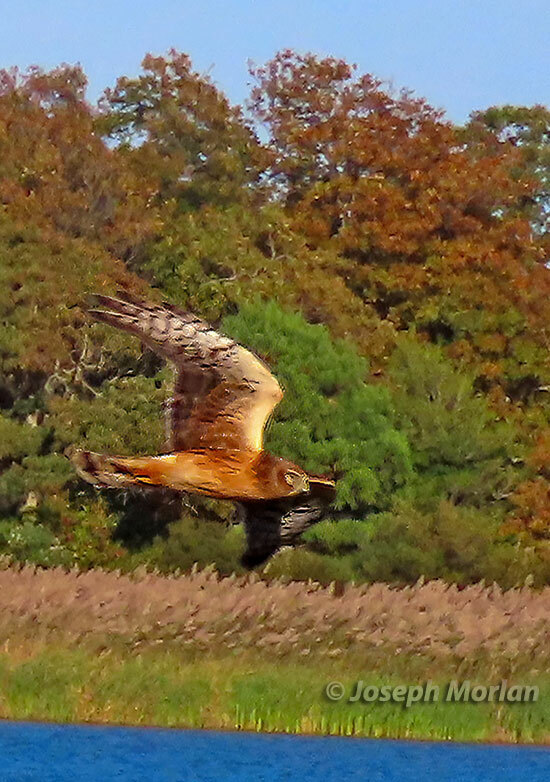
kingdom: Animalia
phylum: Chordata
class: Aves
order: Accipitriformes
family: Accipitridae
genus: Circus
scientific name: Circus cyaneus
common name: Hen harrier
